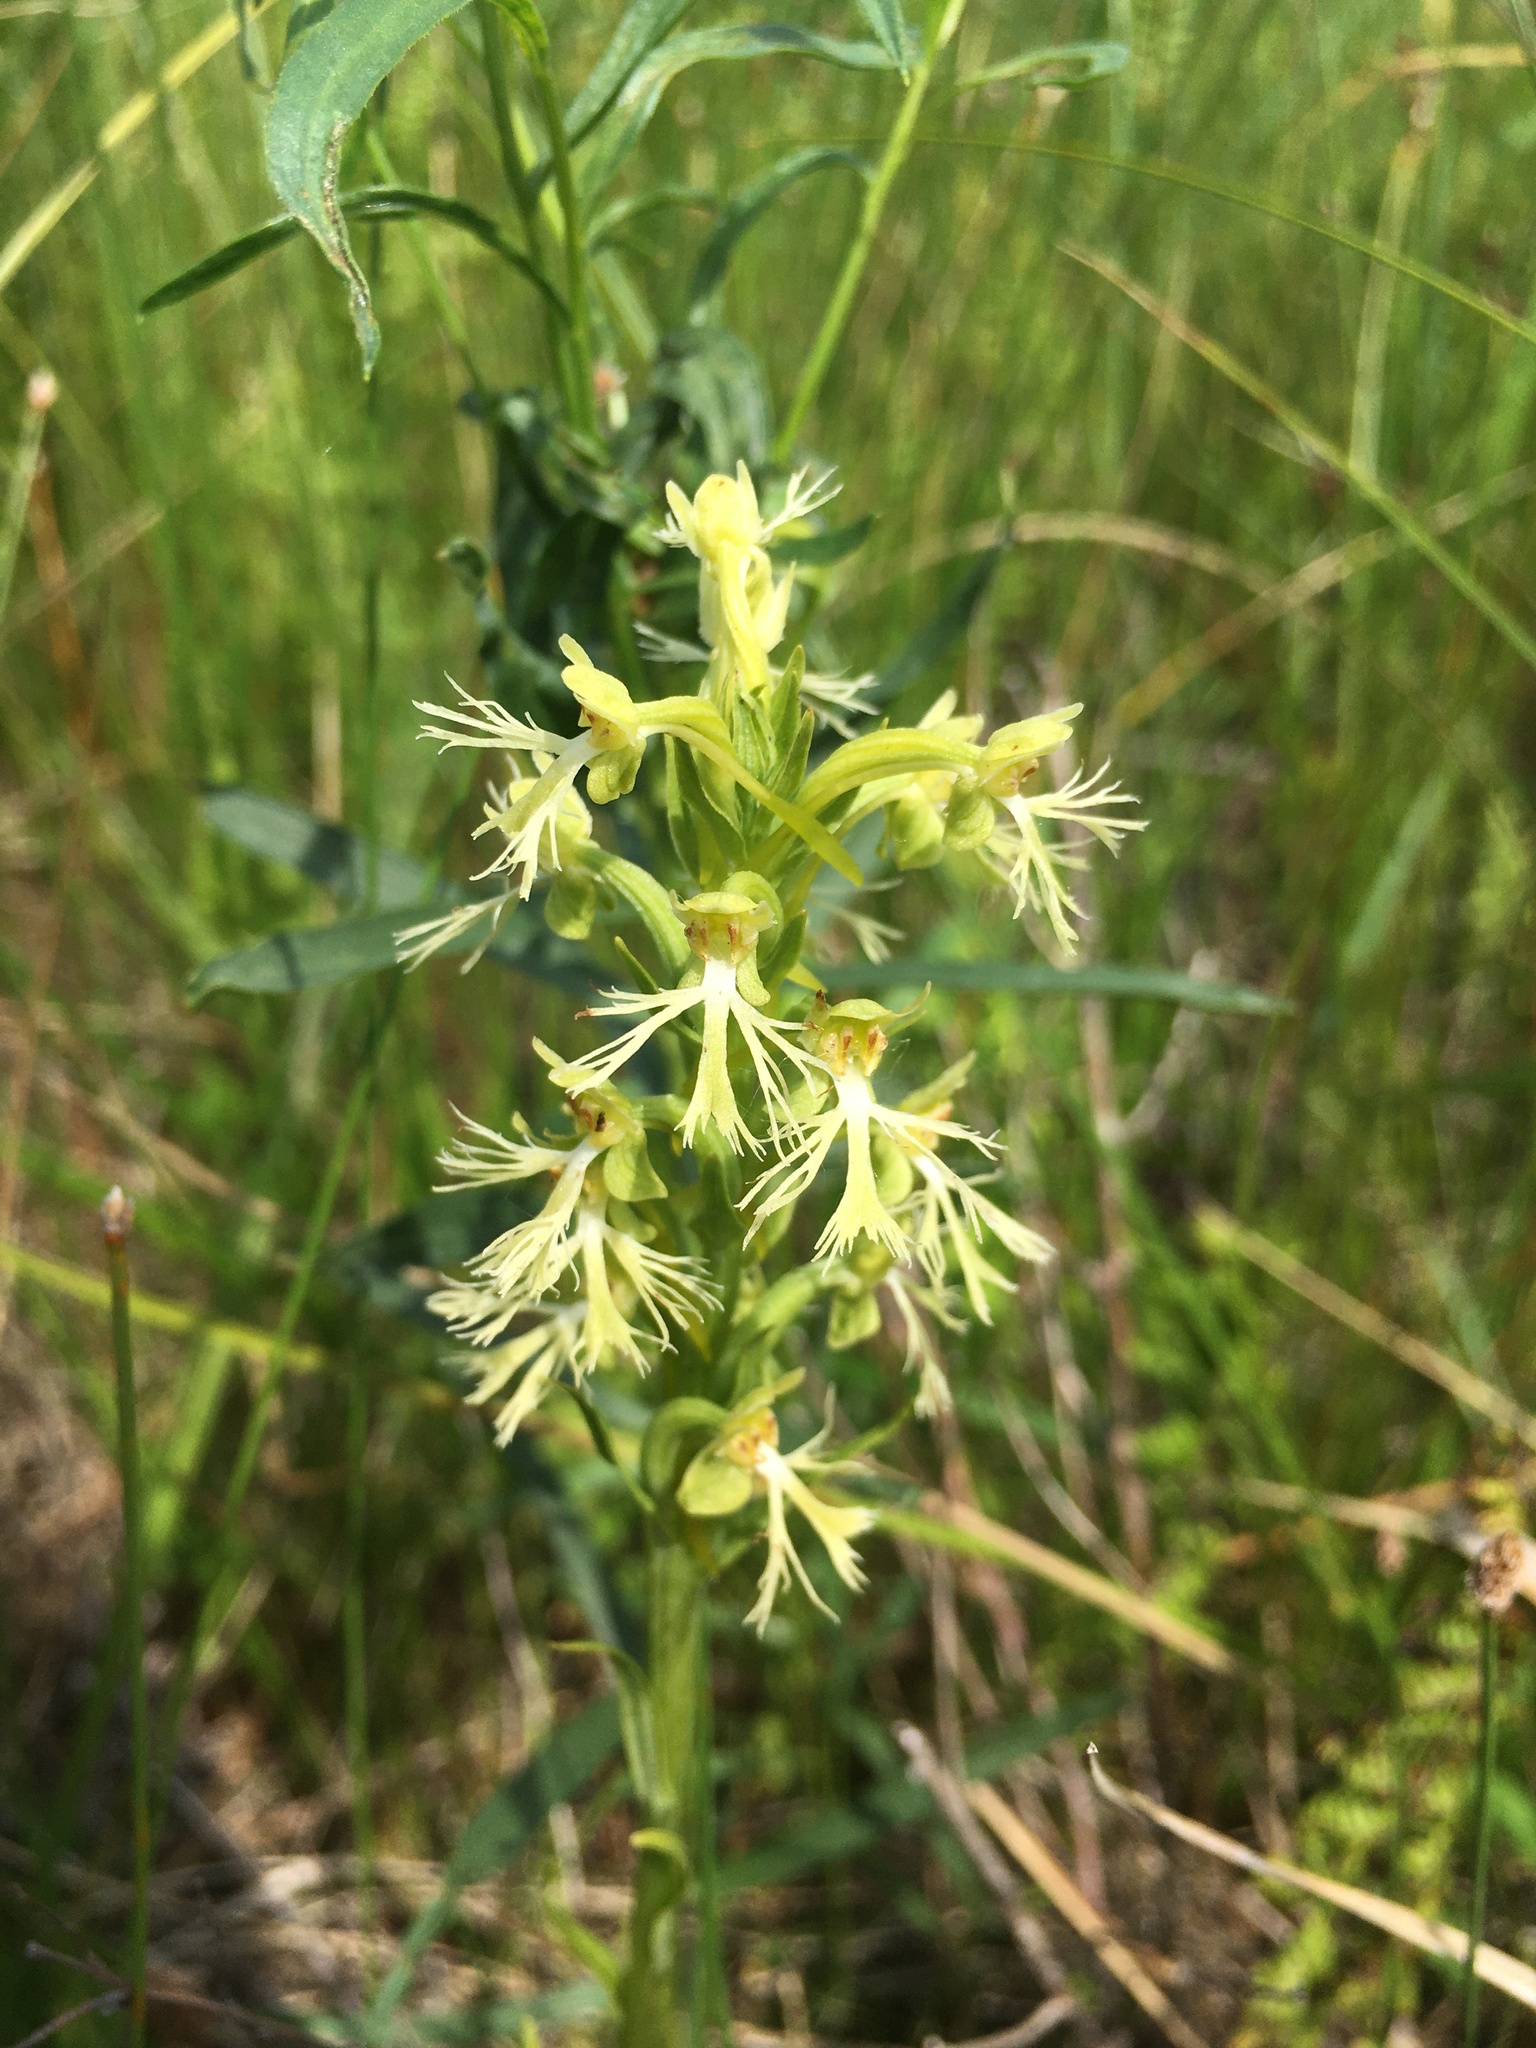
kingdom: Plantae
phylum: Tracheophyta
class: Liliopsida
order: Asparagales
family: Orchidaceae
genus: Platanthera
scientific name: Platanthera lacera
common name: Green fringed orchid
